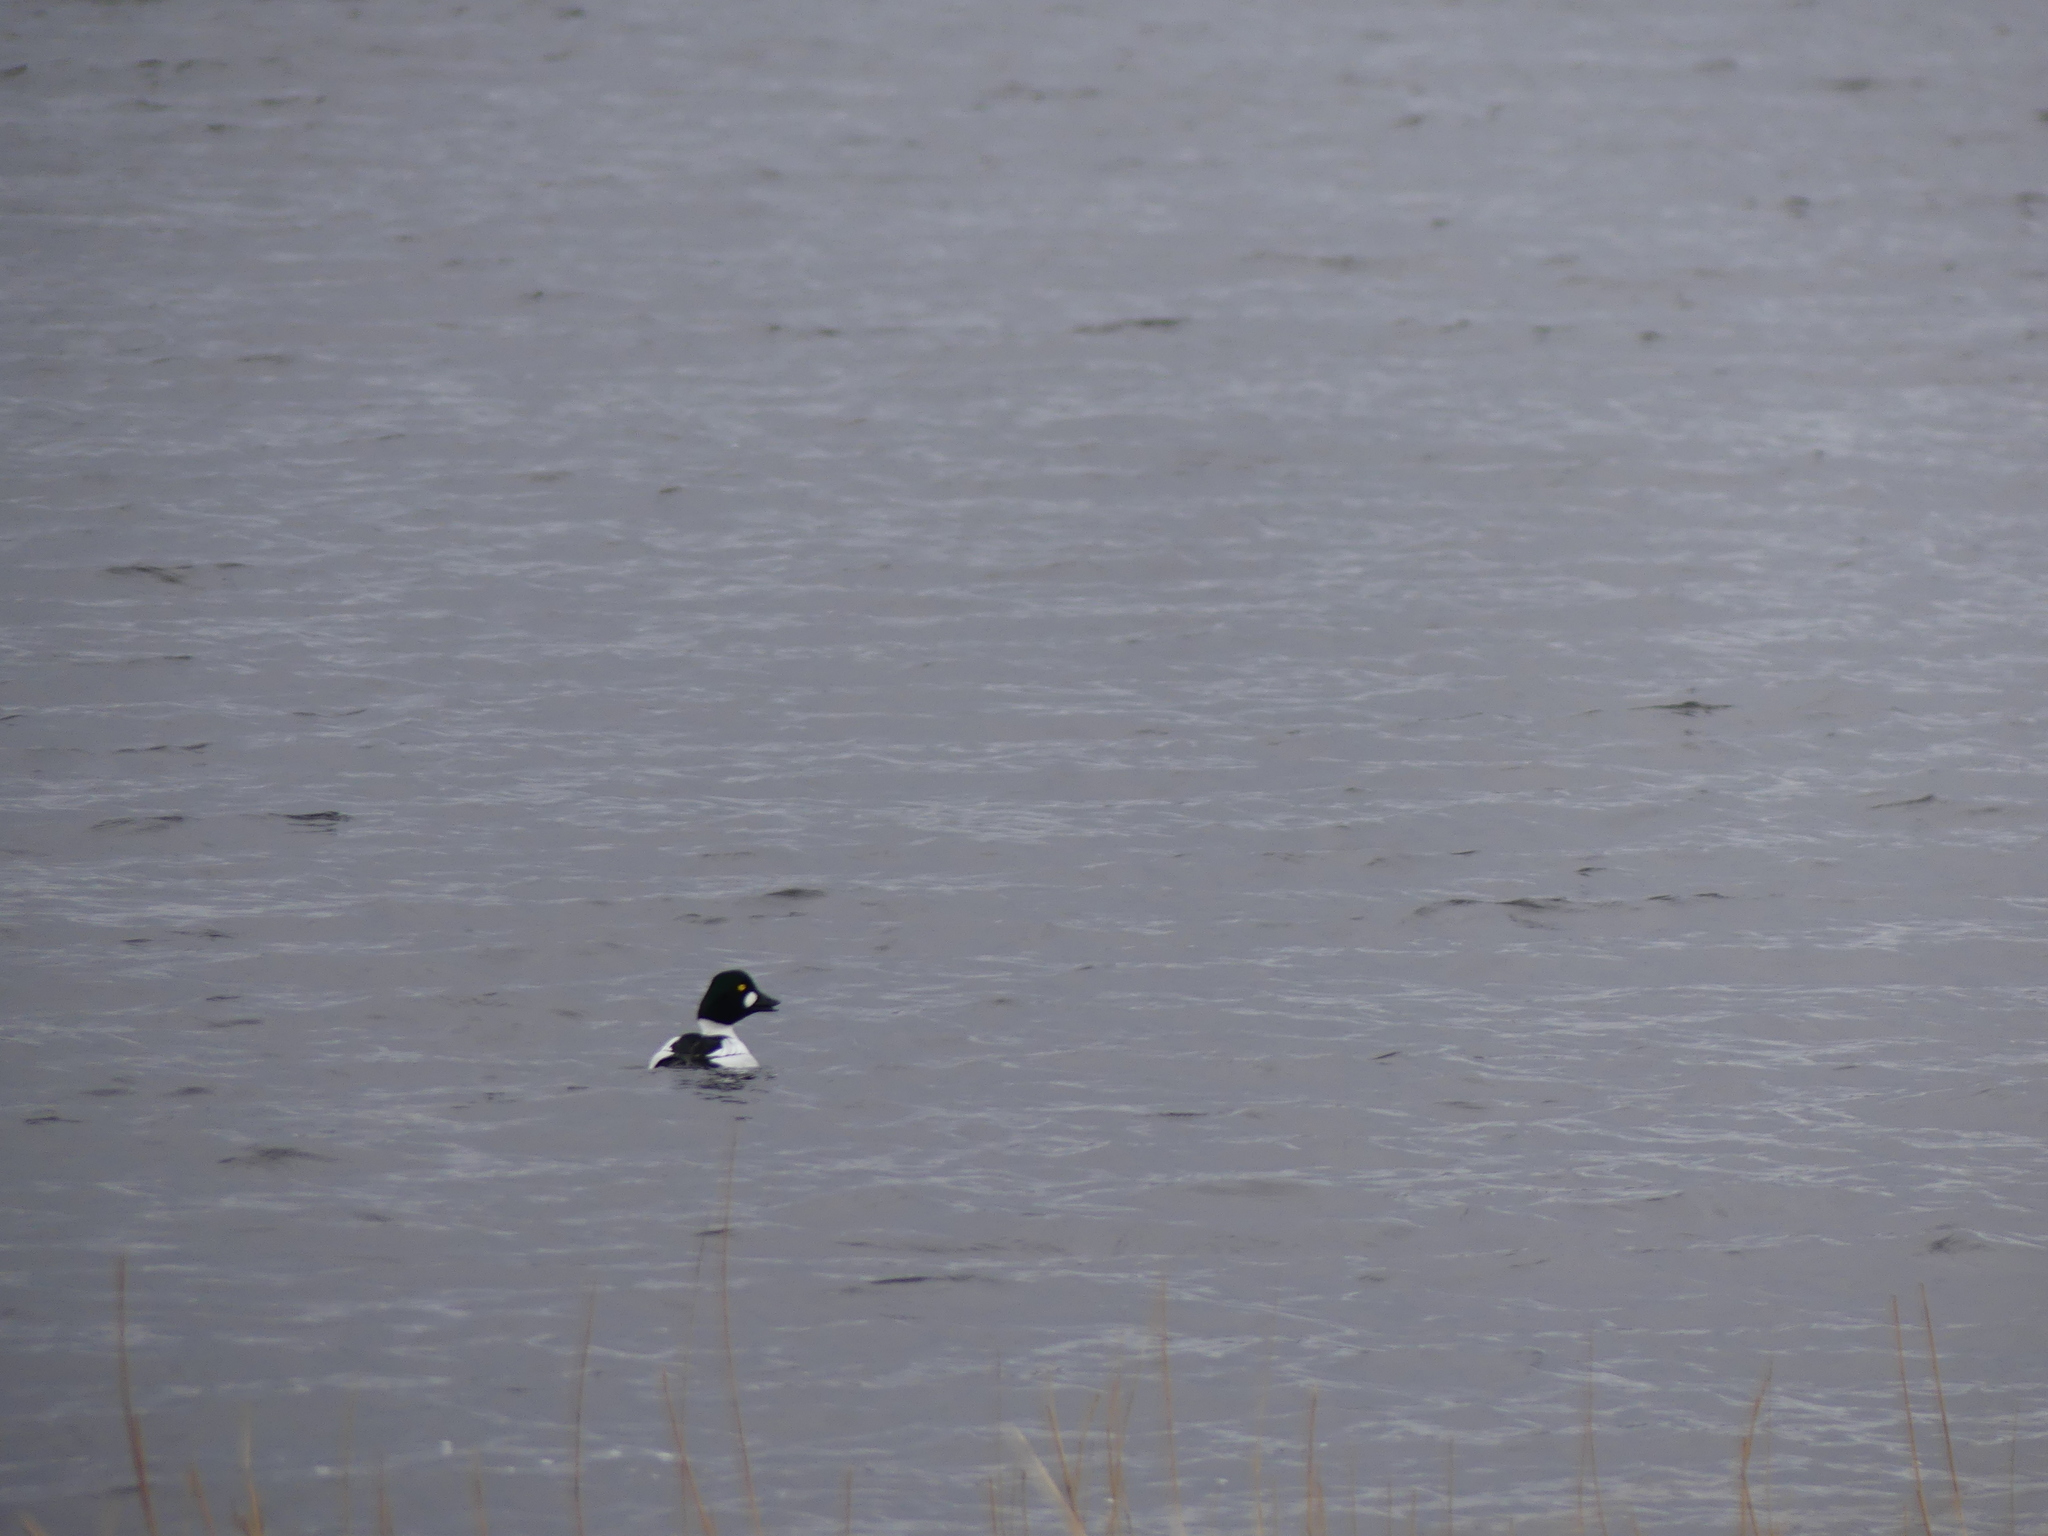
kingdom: Animalia
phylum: Chordata
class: Aves
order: Anseriformes
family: Anatidae
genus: Bucephala
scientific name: Bucephala clangula
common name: Common goldeneye
